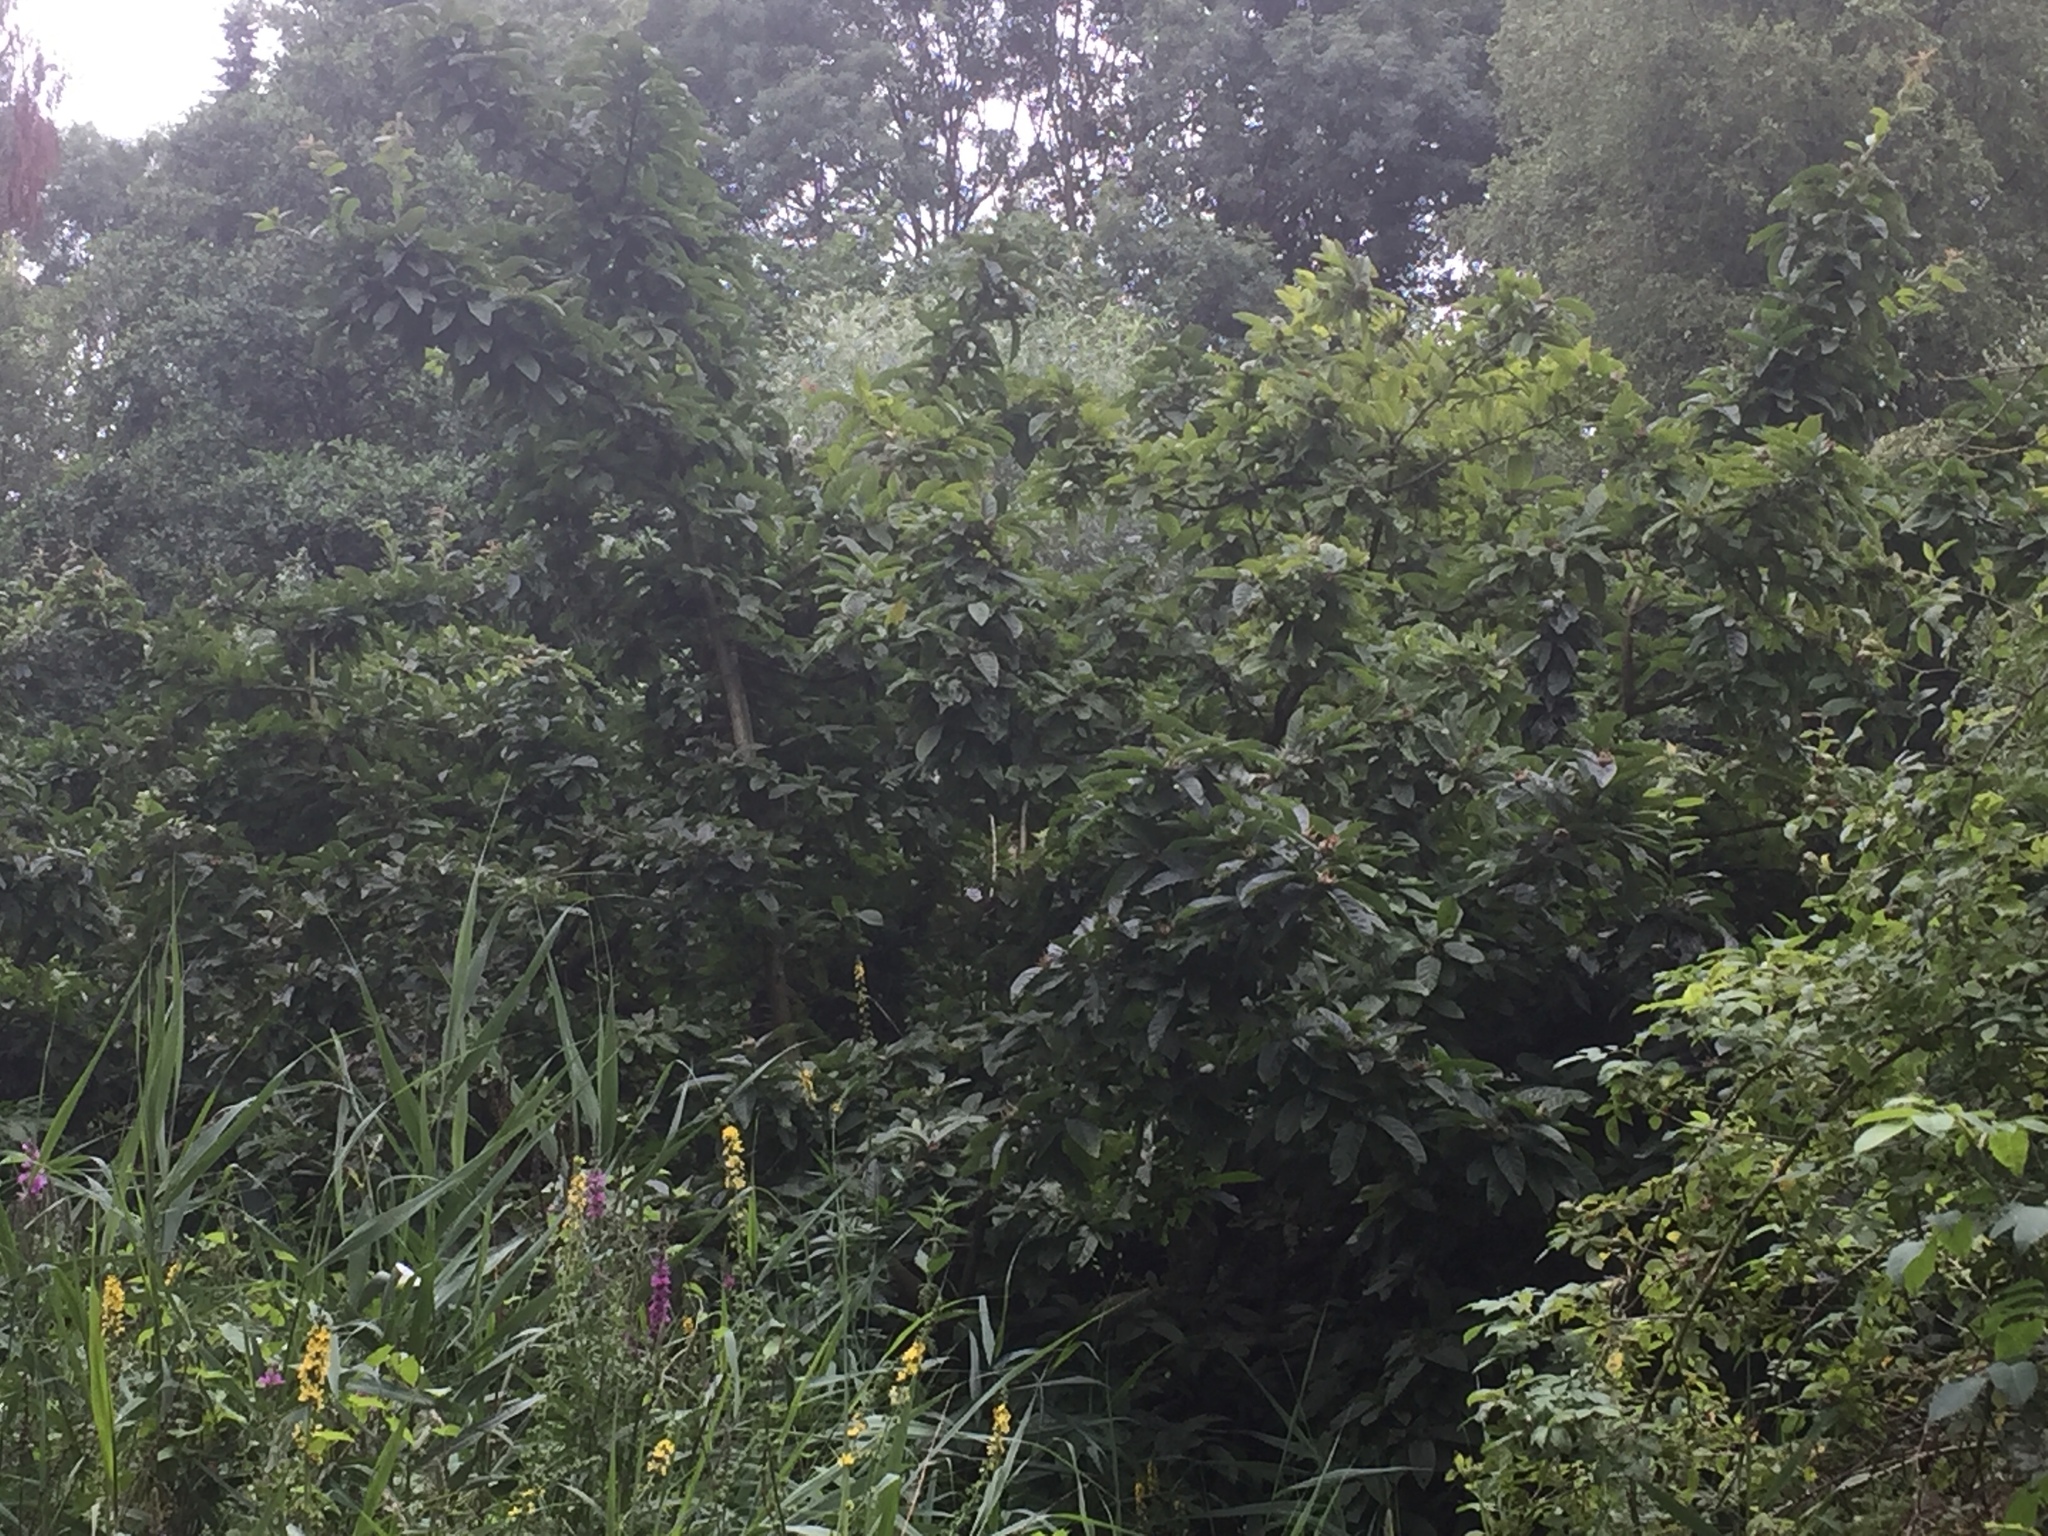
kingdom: Plantae
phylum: Tracheophyta
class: Magnoliopsida
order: Rosales
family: Rosaceae
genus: Mespilus
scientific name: Mespilus germanica
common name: Medlar
